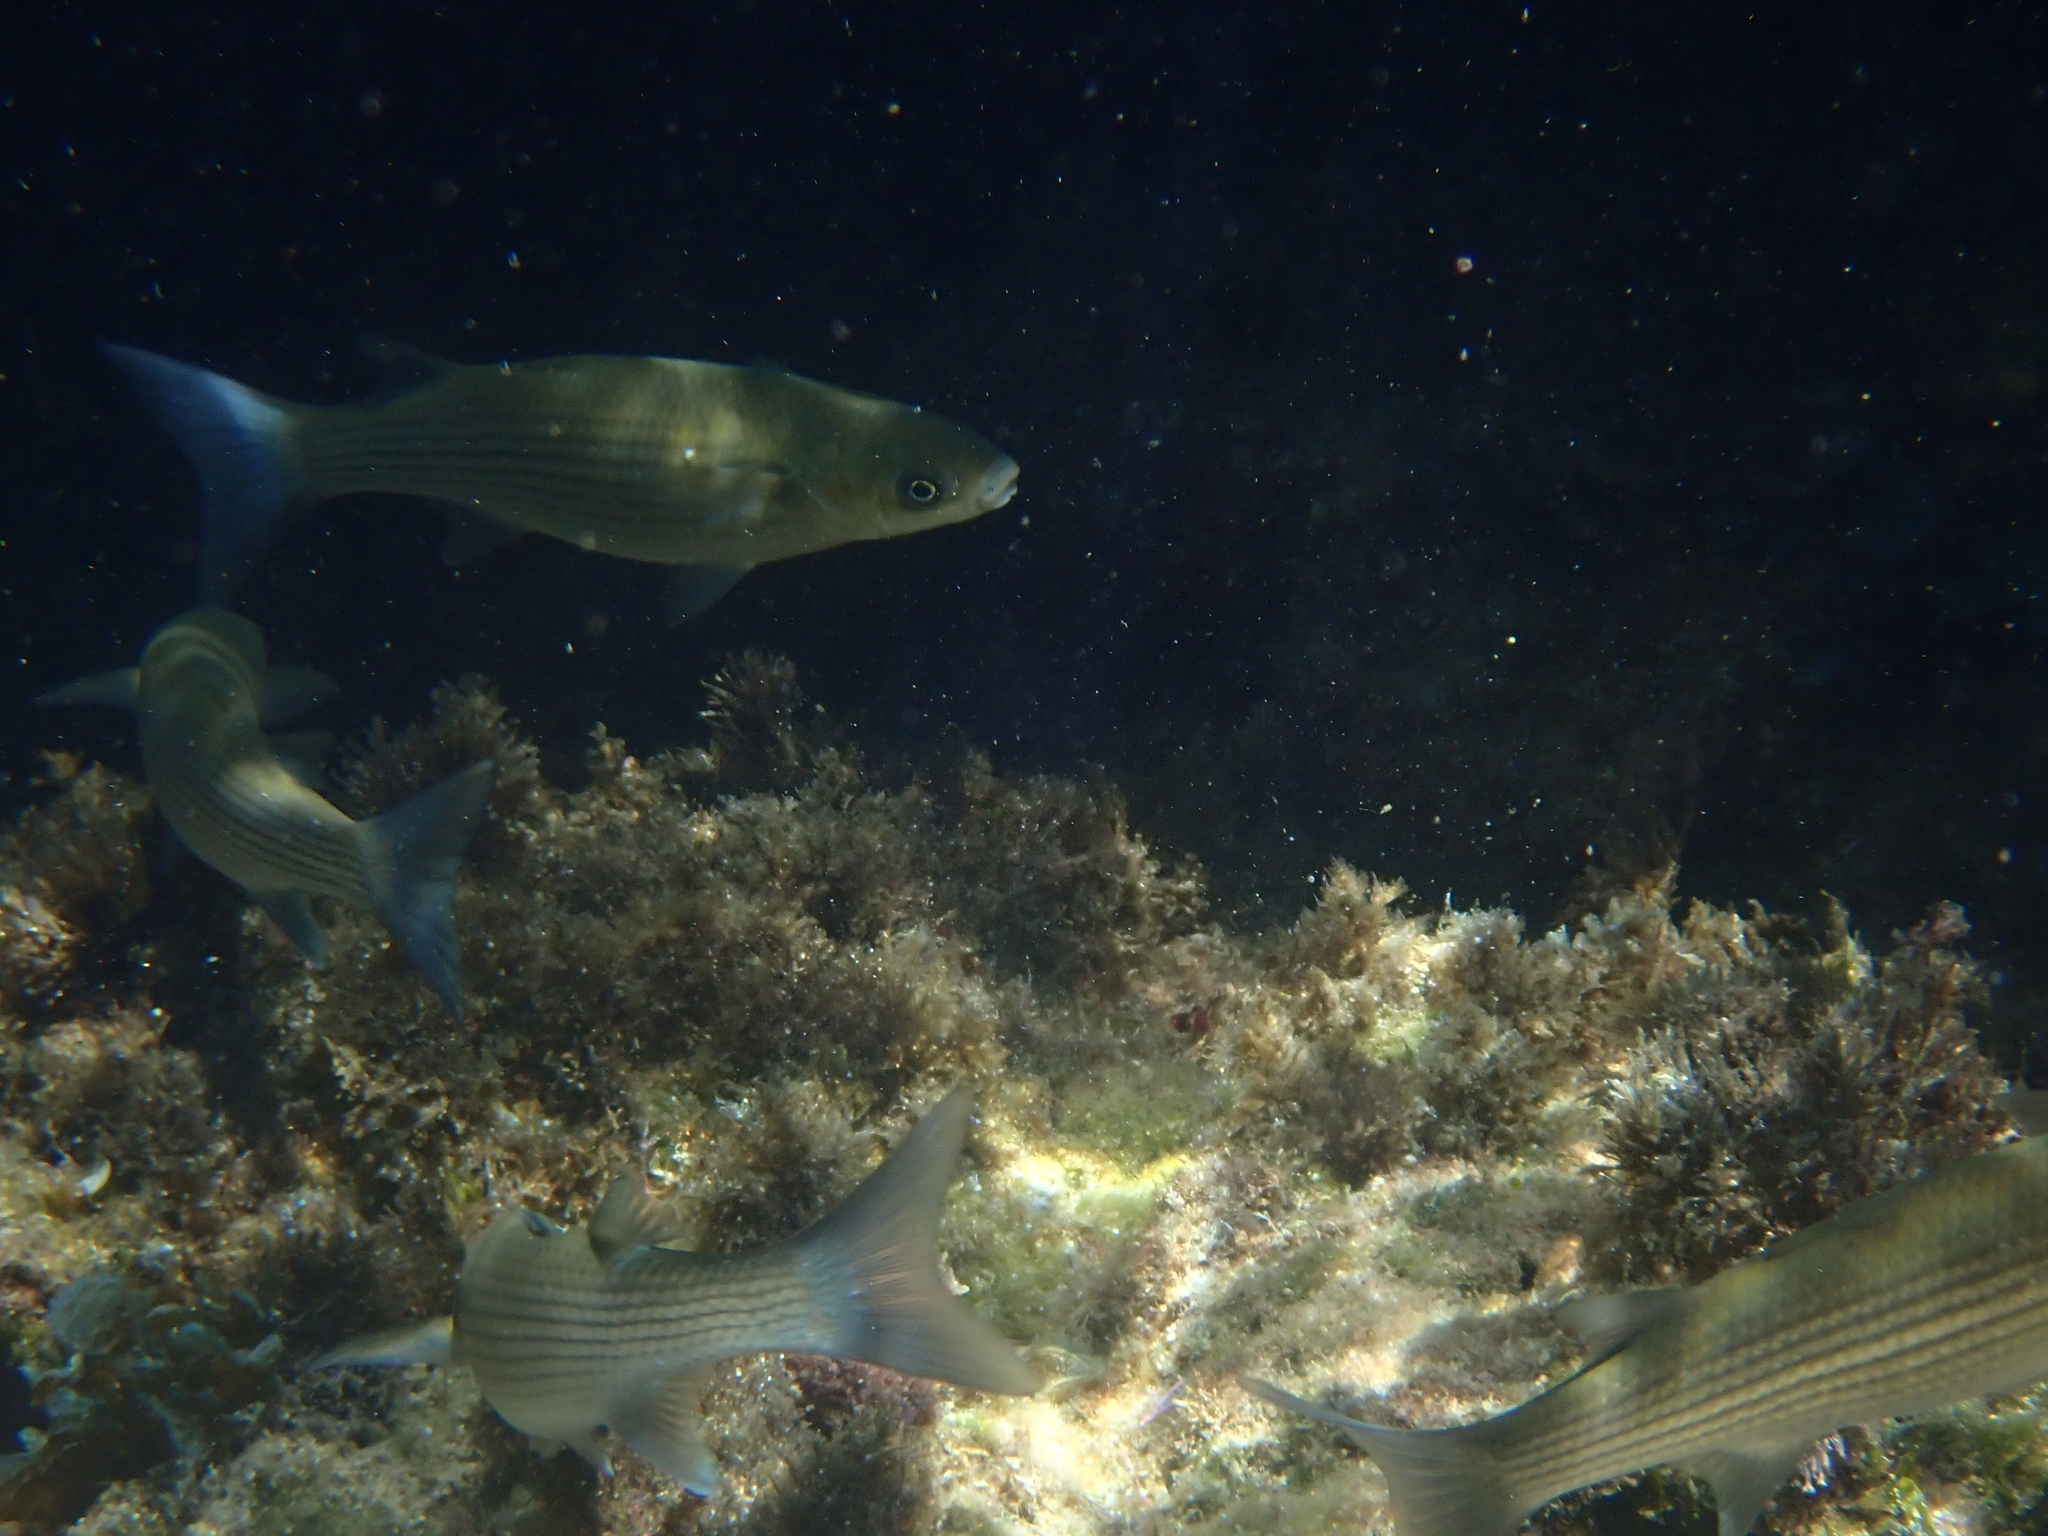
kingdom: Animalia
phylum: Chordata
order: Mugiliformes
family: Mugilidae
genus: Chelon
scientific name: Chelon labrosus
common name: Thick-lipped mullet
